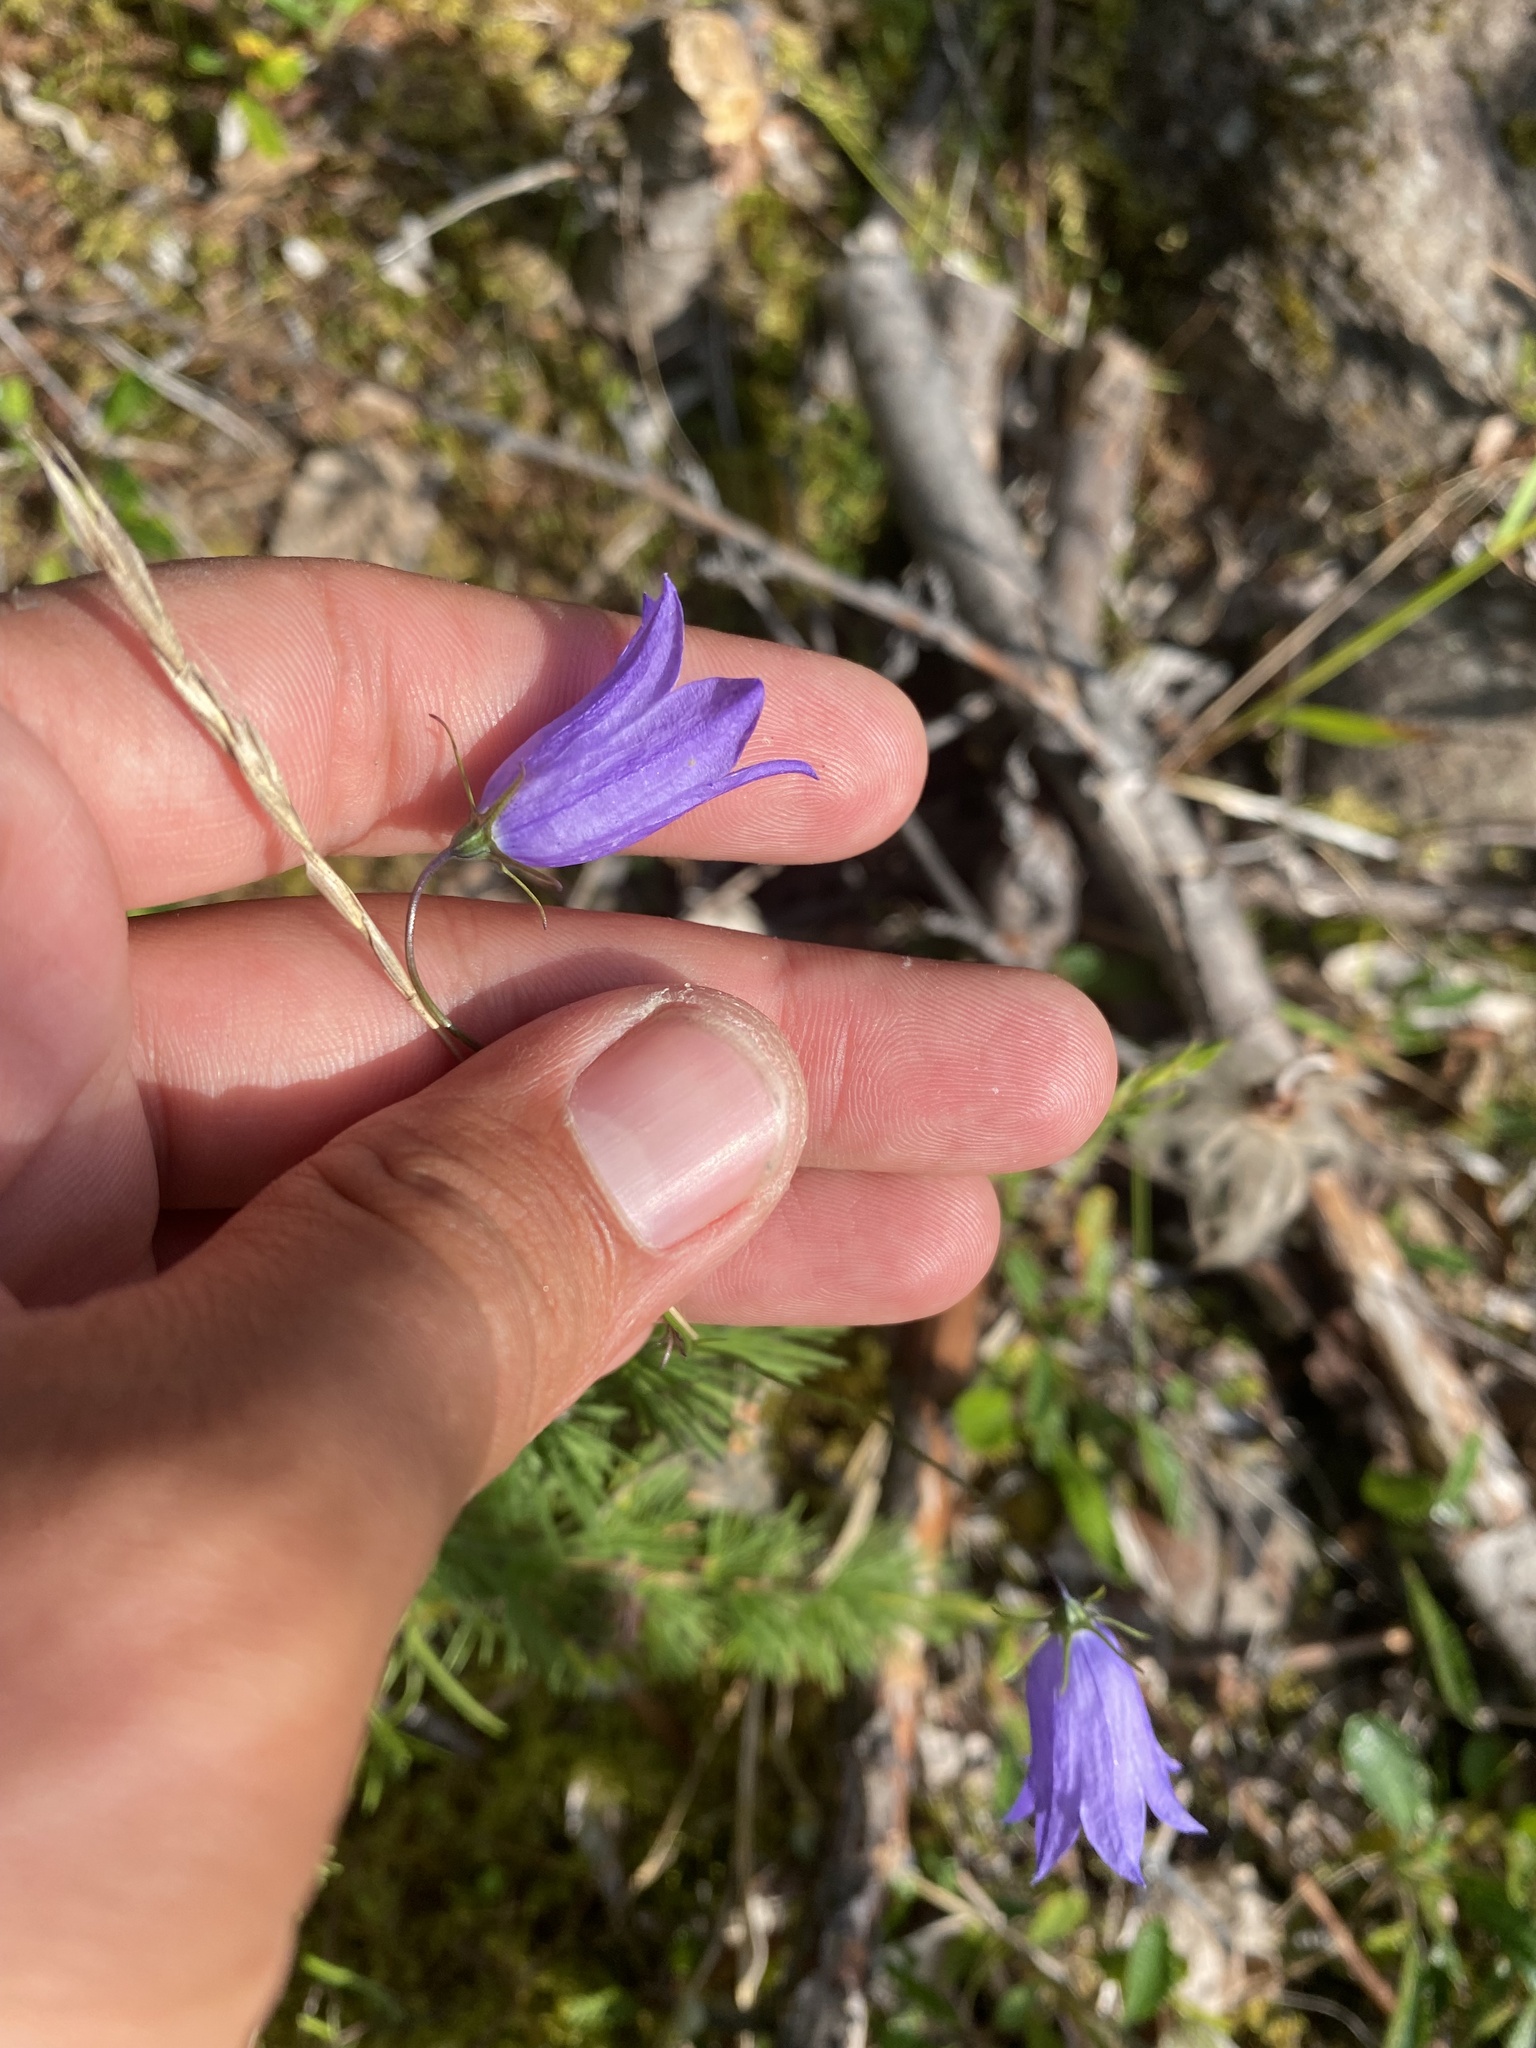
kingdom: Plantae
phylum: Tracheophyta
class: Magnoliopsida
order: Asterales
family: Campanulaceae
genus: Campanula
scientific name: Campanula rotundifolia
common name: Harebell
